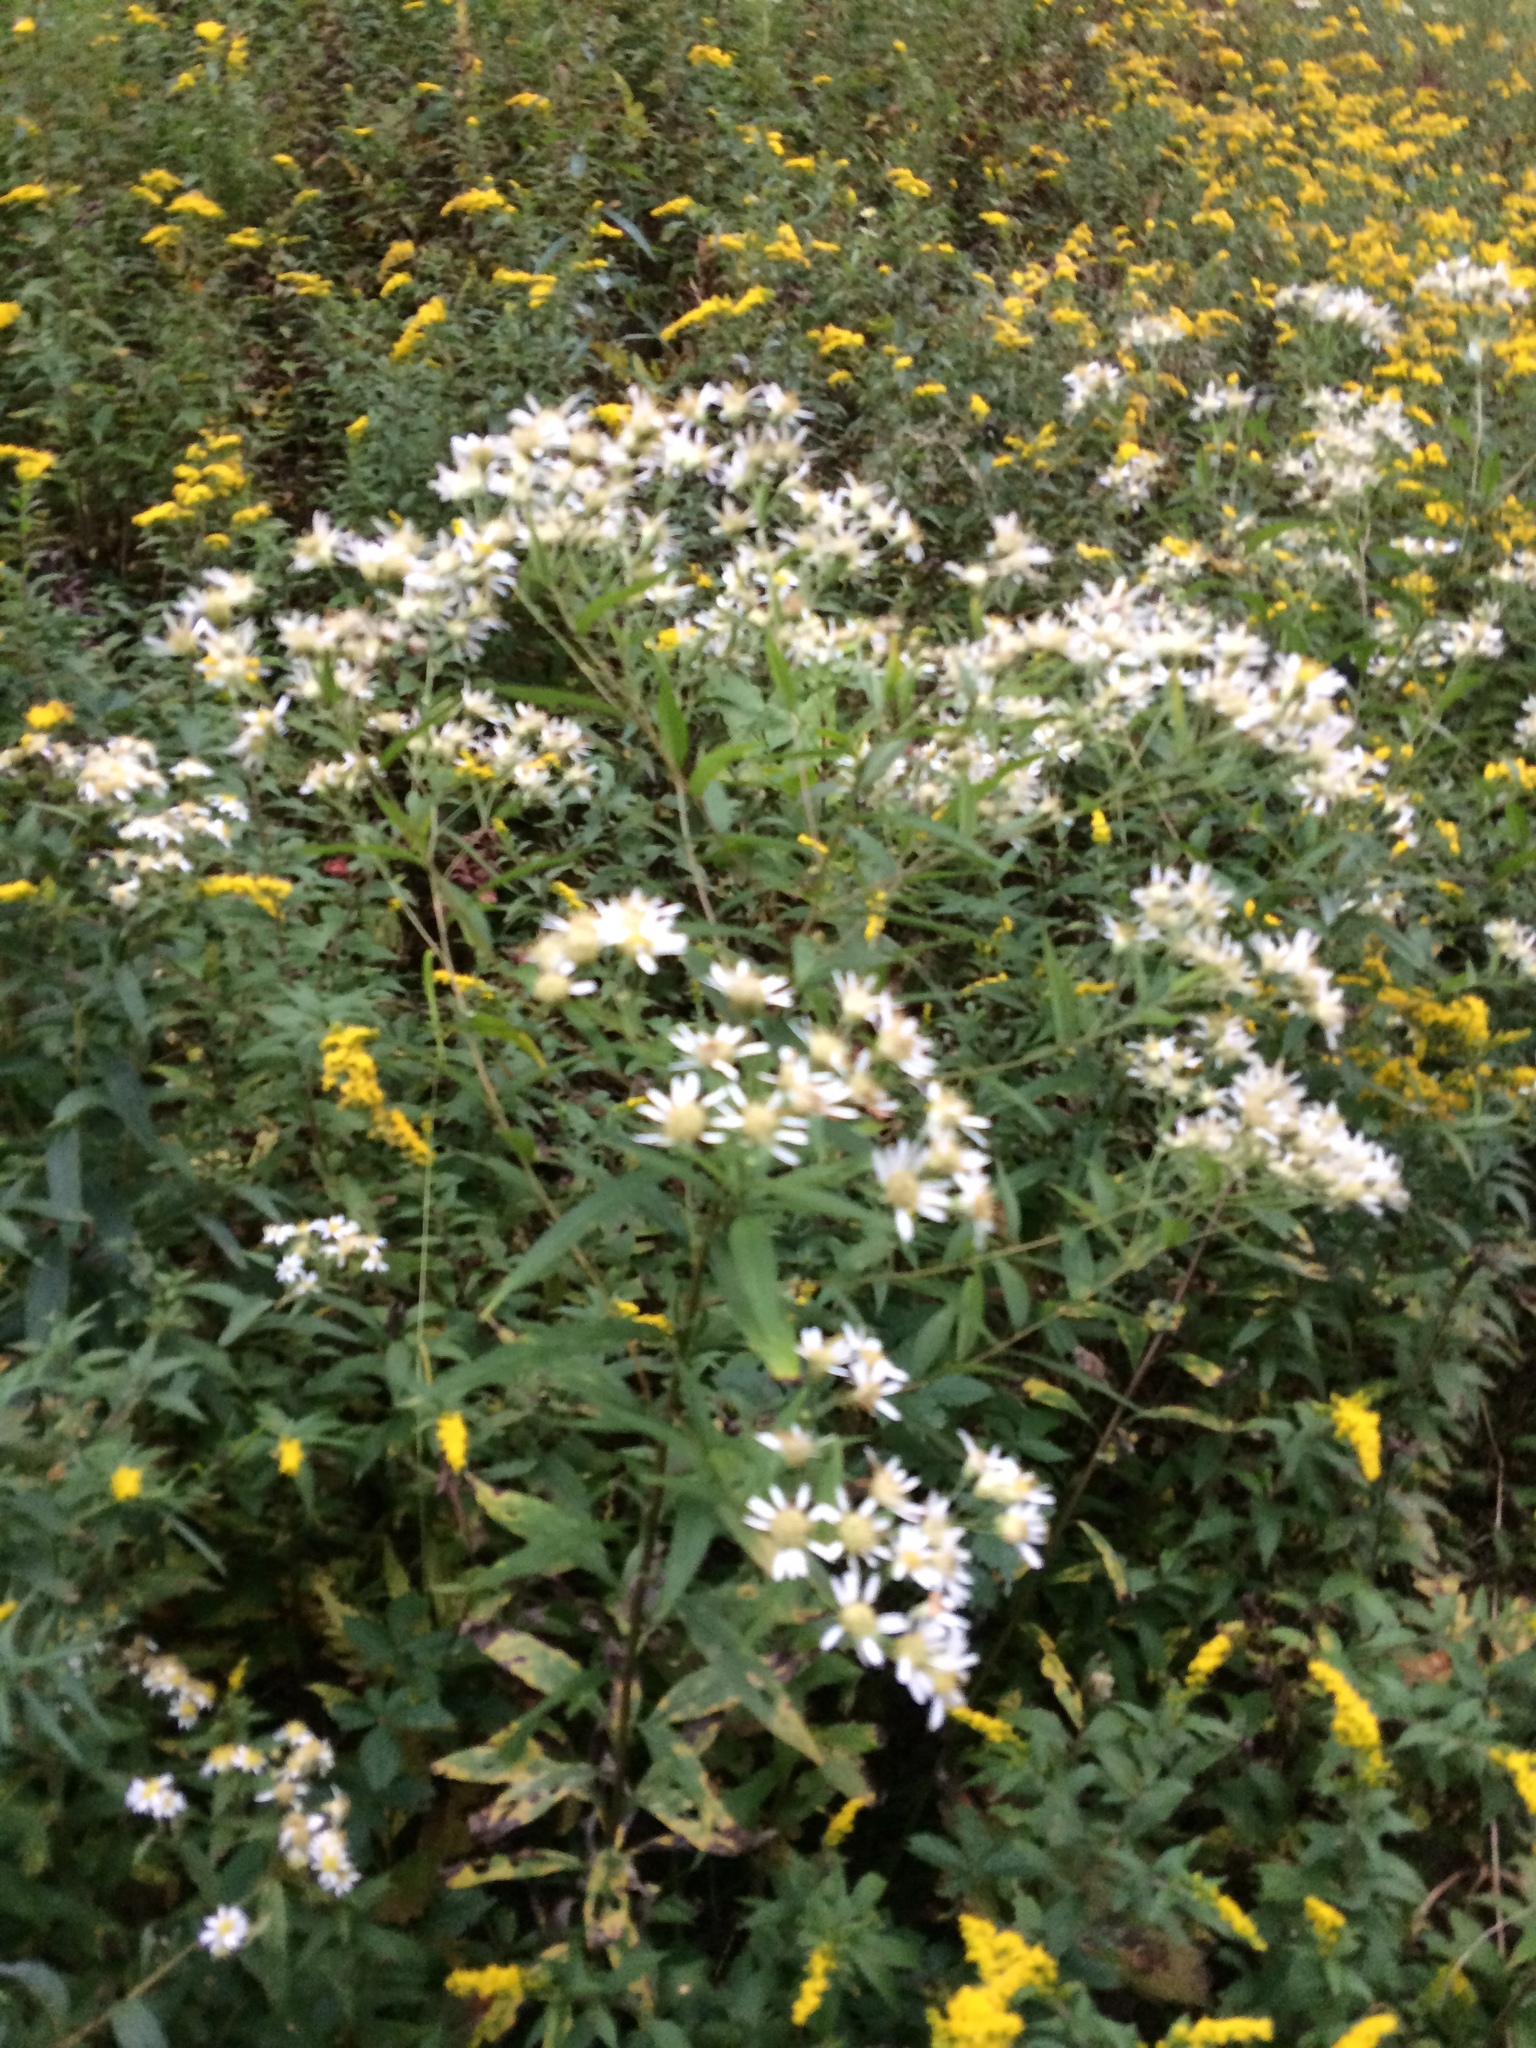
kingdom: Plantae
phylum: Tracheophyta
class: Magnoliopsida
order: Asterales
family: Asteraceae
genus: Doellingeria
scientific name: Doellingeria umbellata
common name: Flat-top white aster
